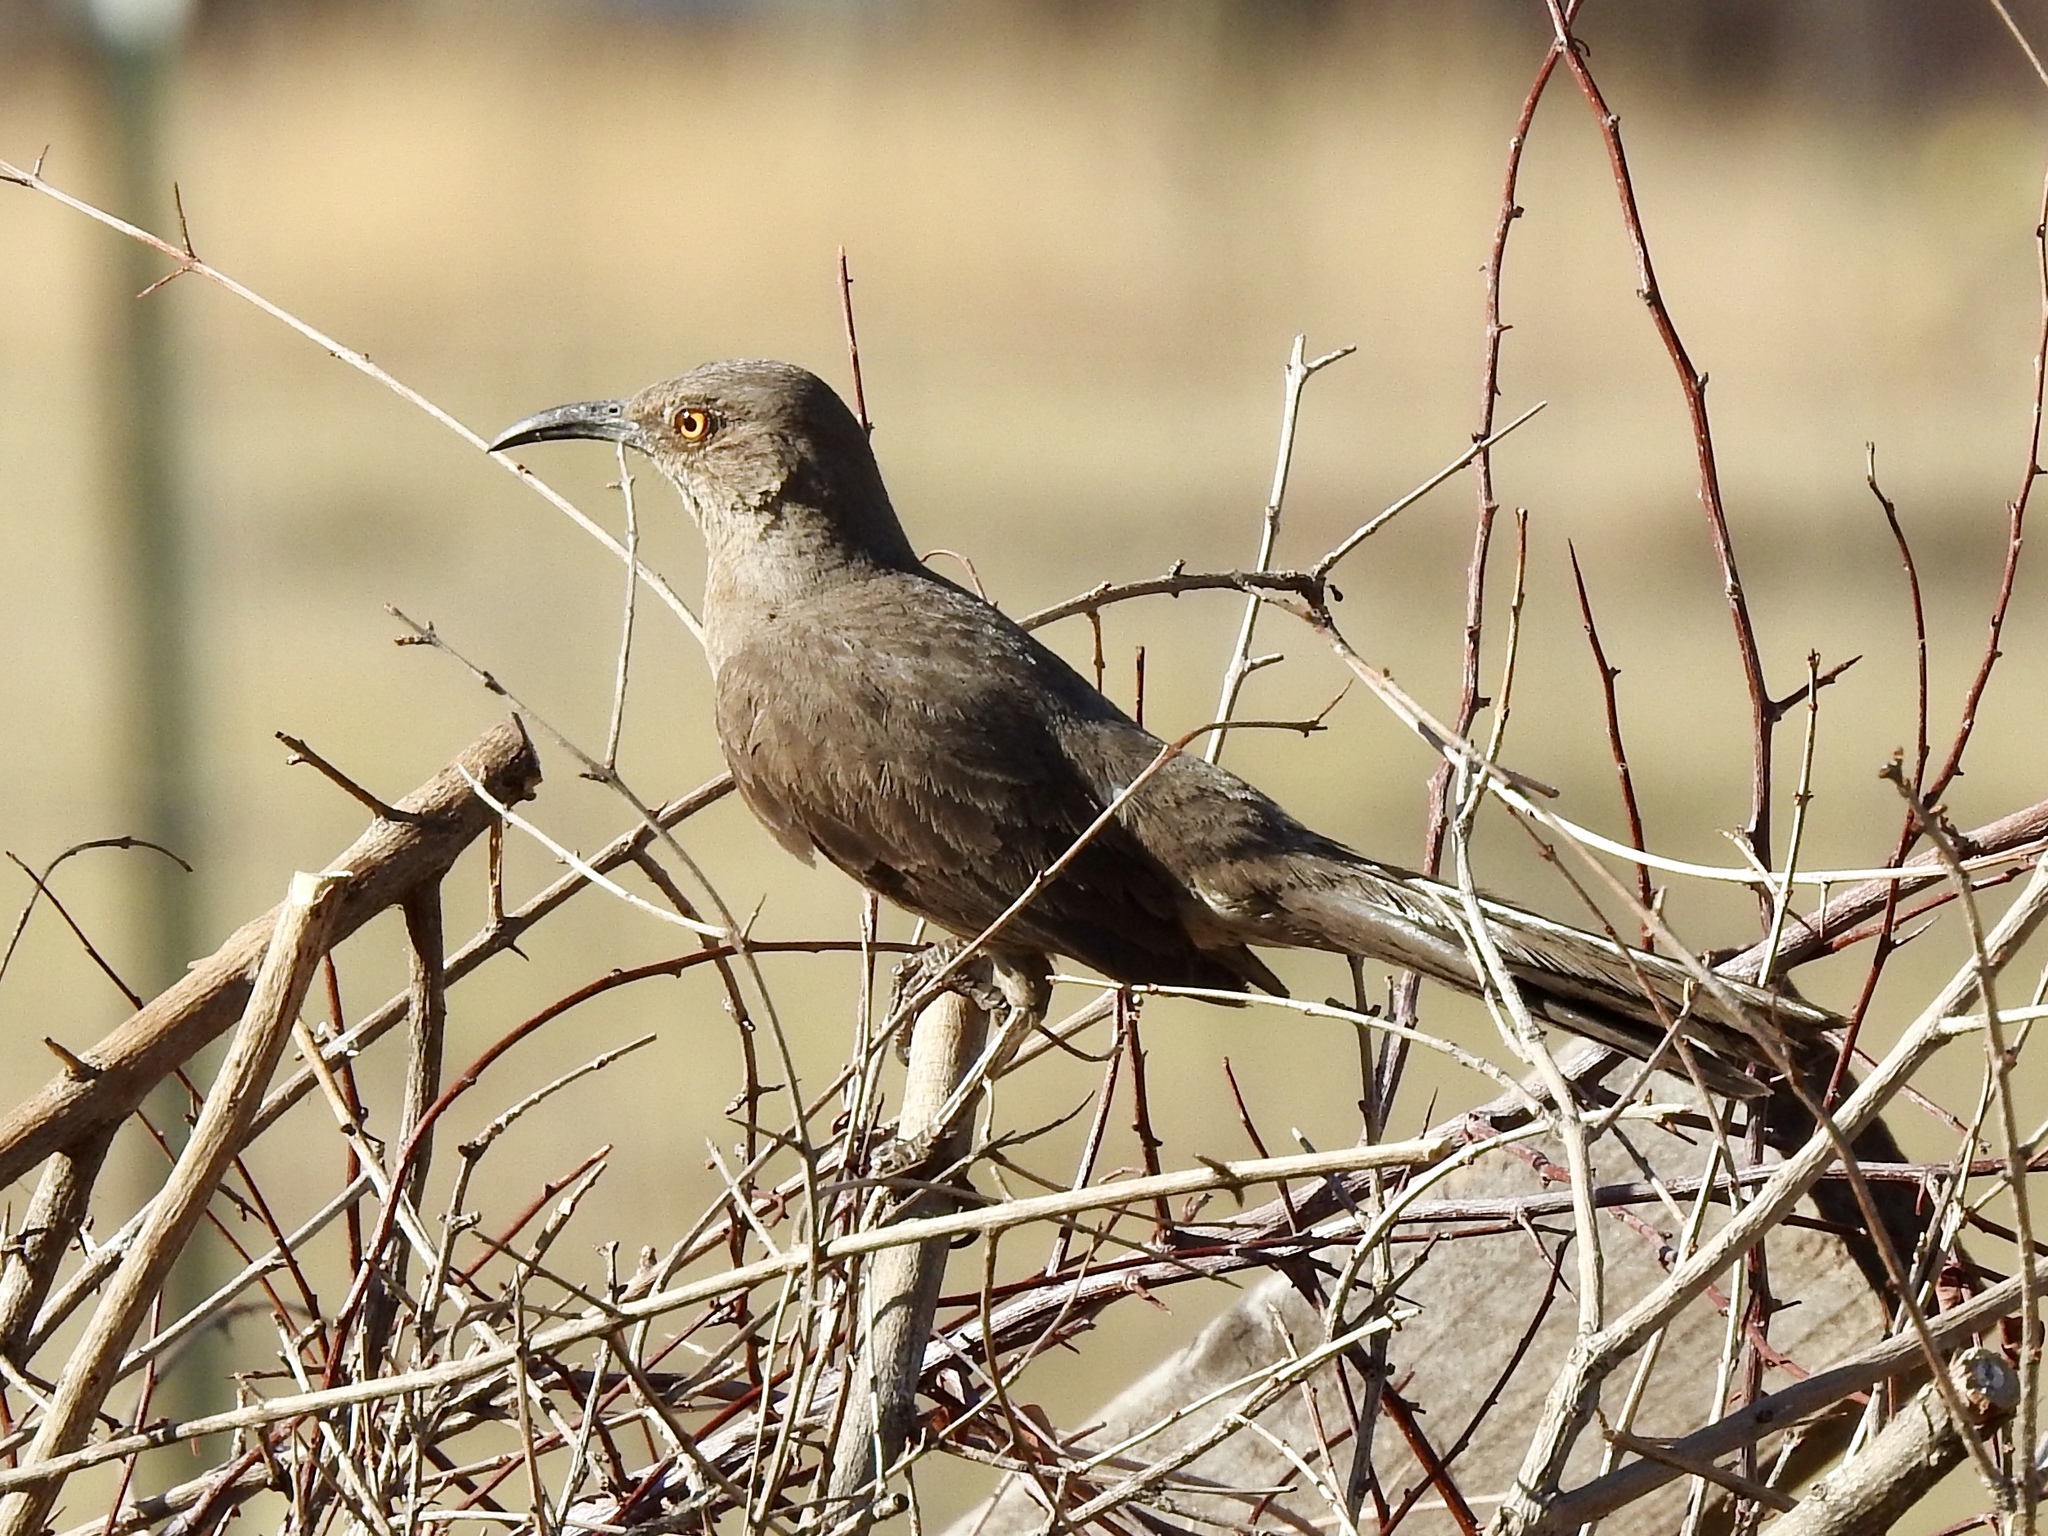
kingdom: Animalia
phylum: Chordata
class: Aves
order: Passeriformes
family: Mimidae
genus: Toxostoma
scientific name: Toxostoma curvirostre
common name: Curve-billed thrasher
